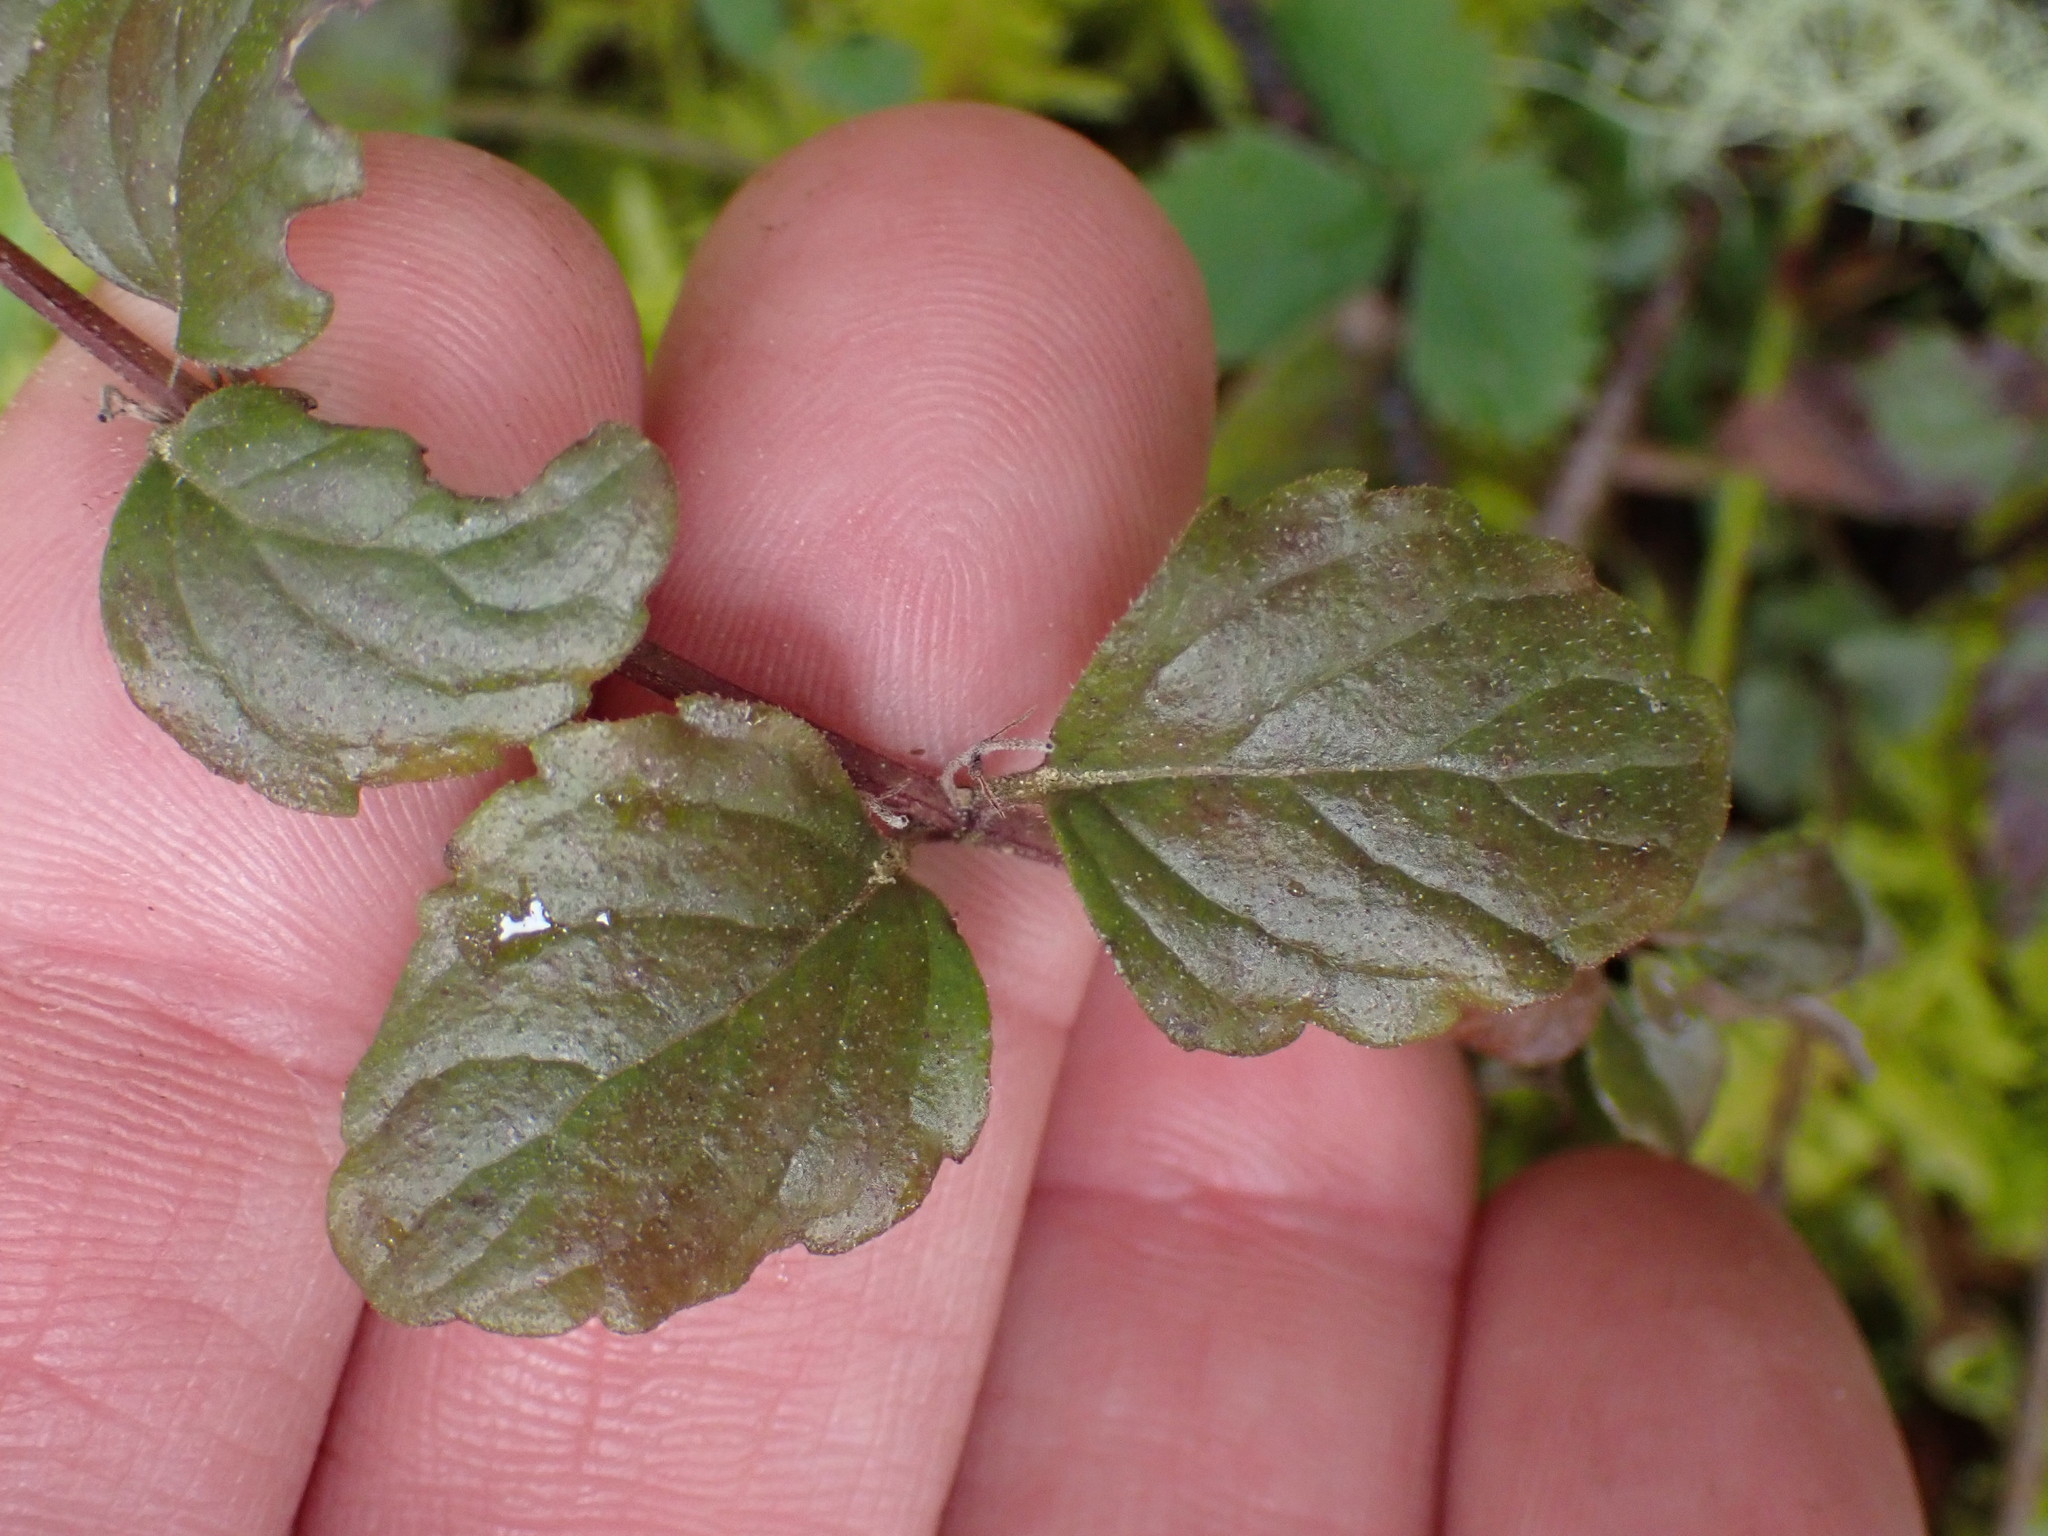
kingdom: Plantae
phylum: Tracheophyta
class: Magnoliopsida
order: Lamiales
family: Lamiaceae
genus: Micromeria
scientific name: Micromeria douglasii
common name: Yerba buena
